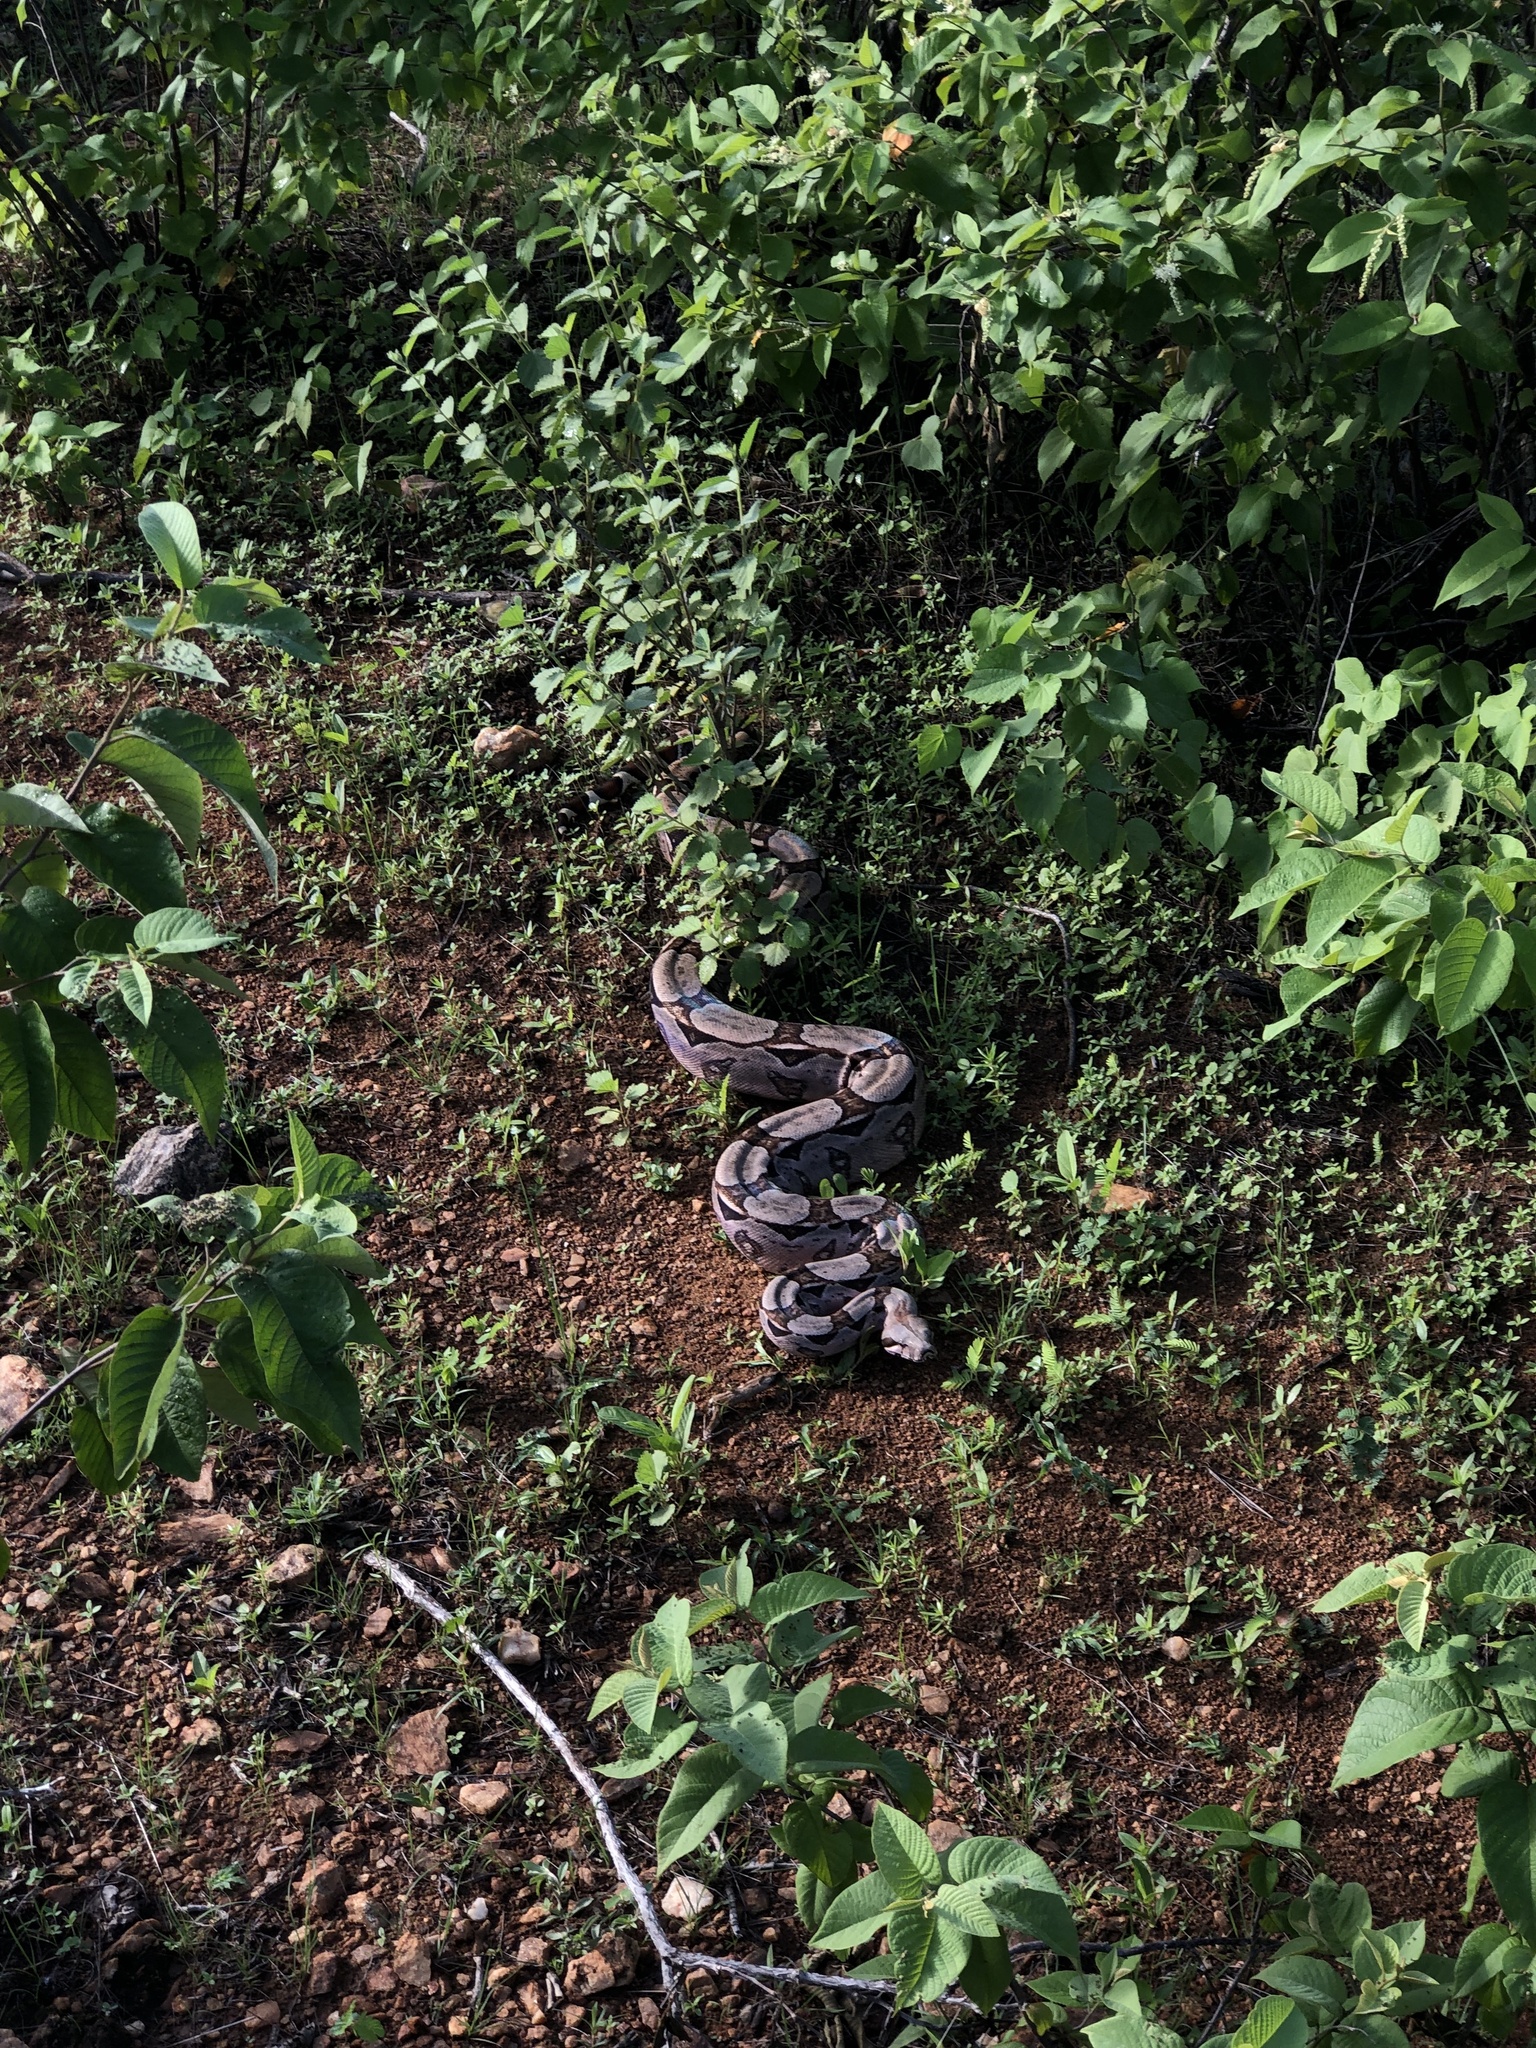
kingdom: Animalia
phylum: Chordata
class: Squamata
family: Boidae
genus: Boa
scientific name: Boa constrictor
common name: Boa constrictor
